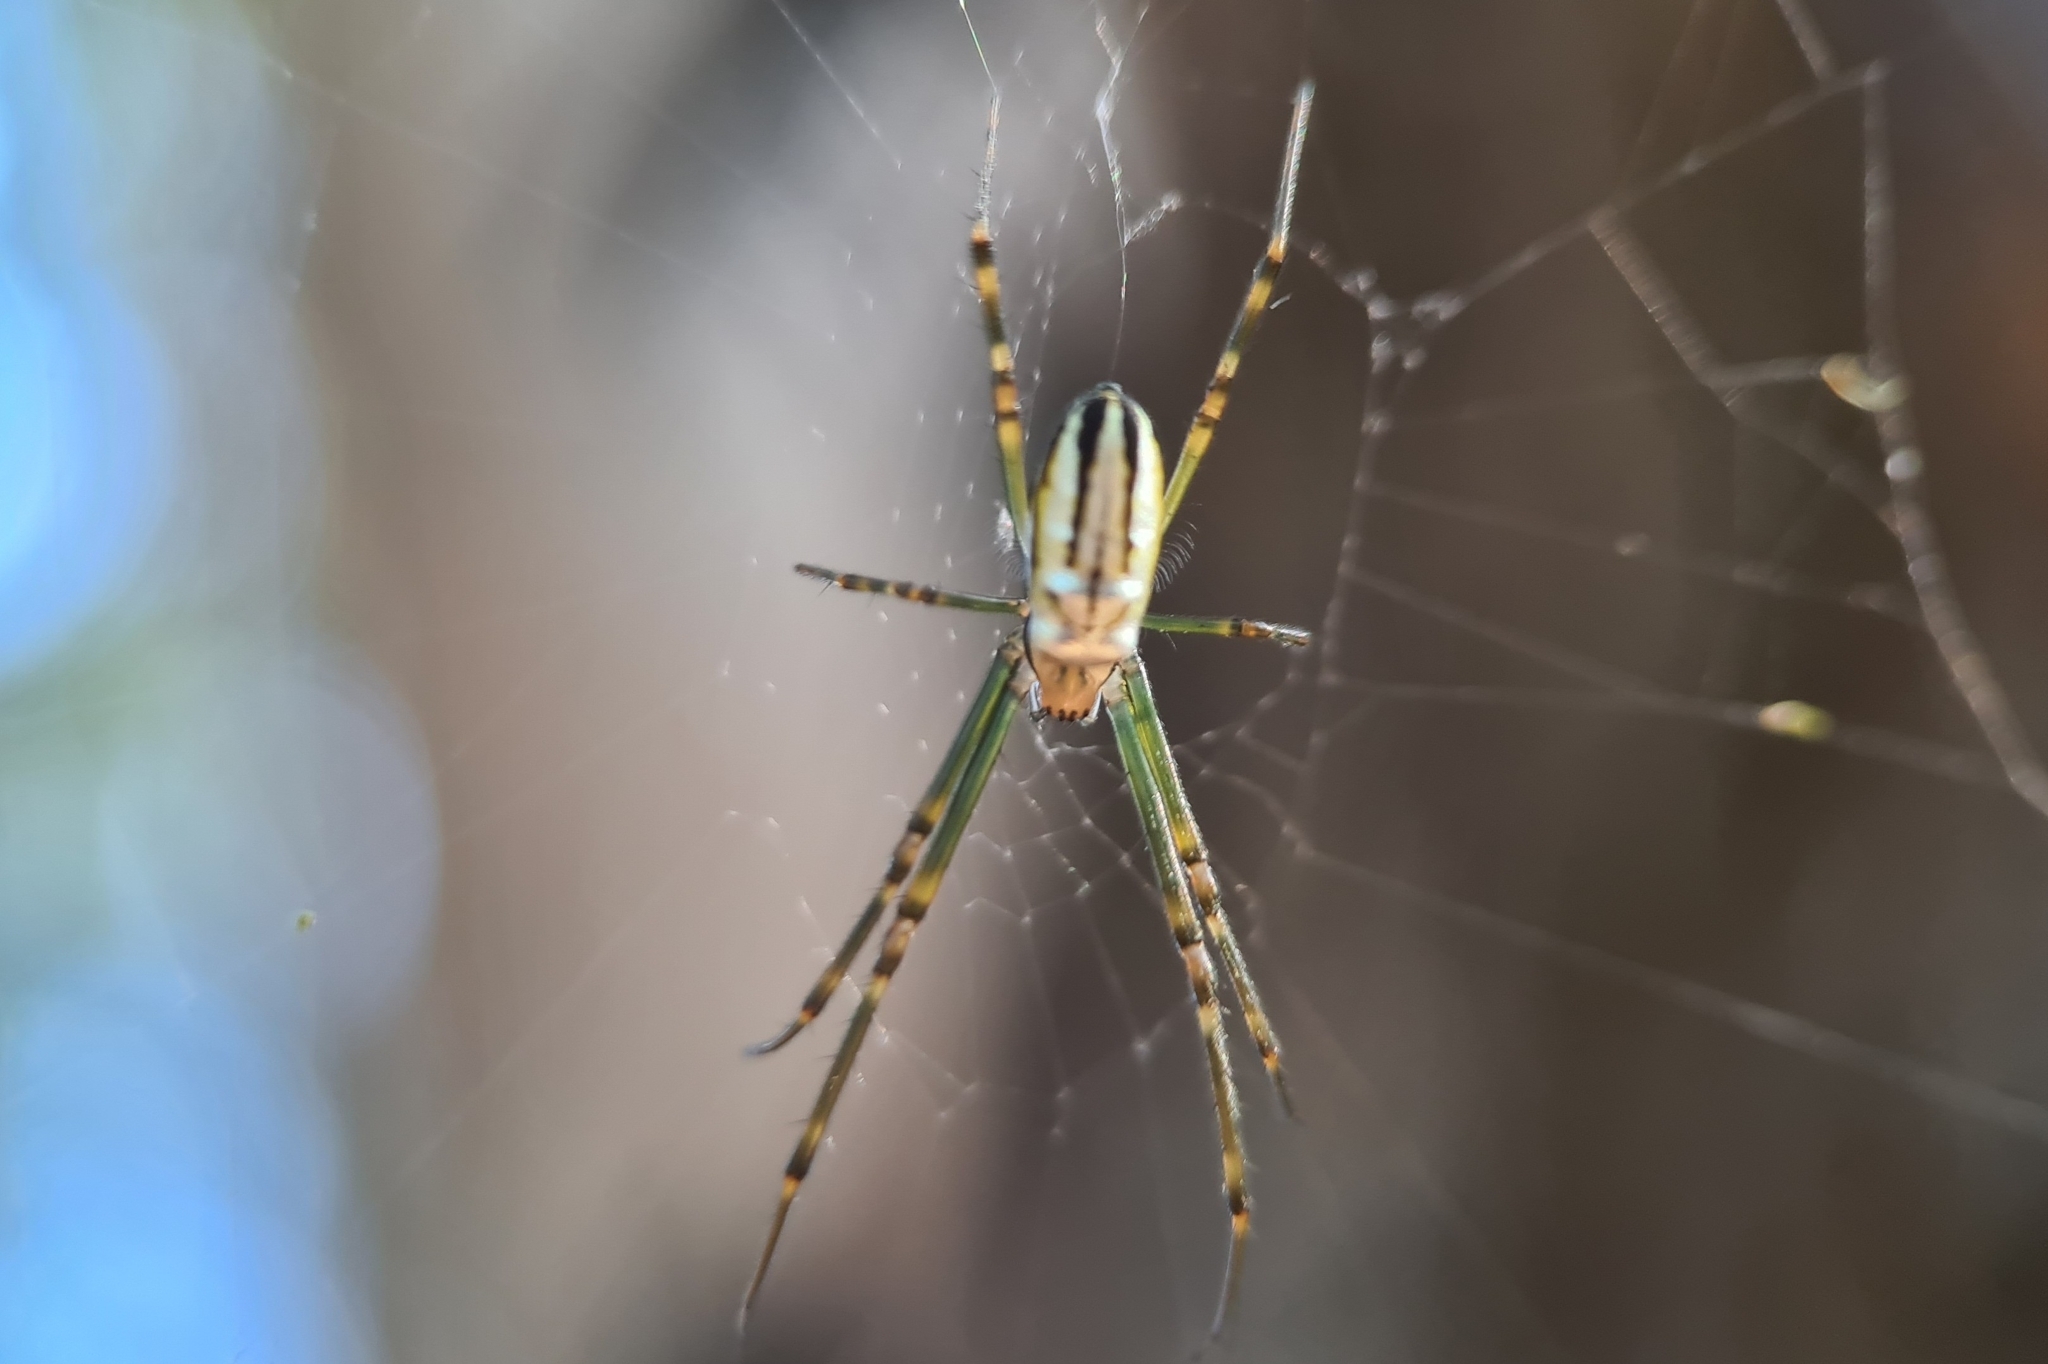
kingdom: Animalia
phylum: Arthropoda
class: Arachnida
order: Araneae
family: Tetragnathidae
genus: Leucauge
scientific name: Leucauge dromedaria
